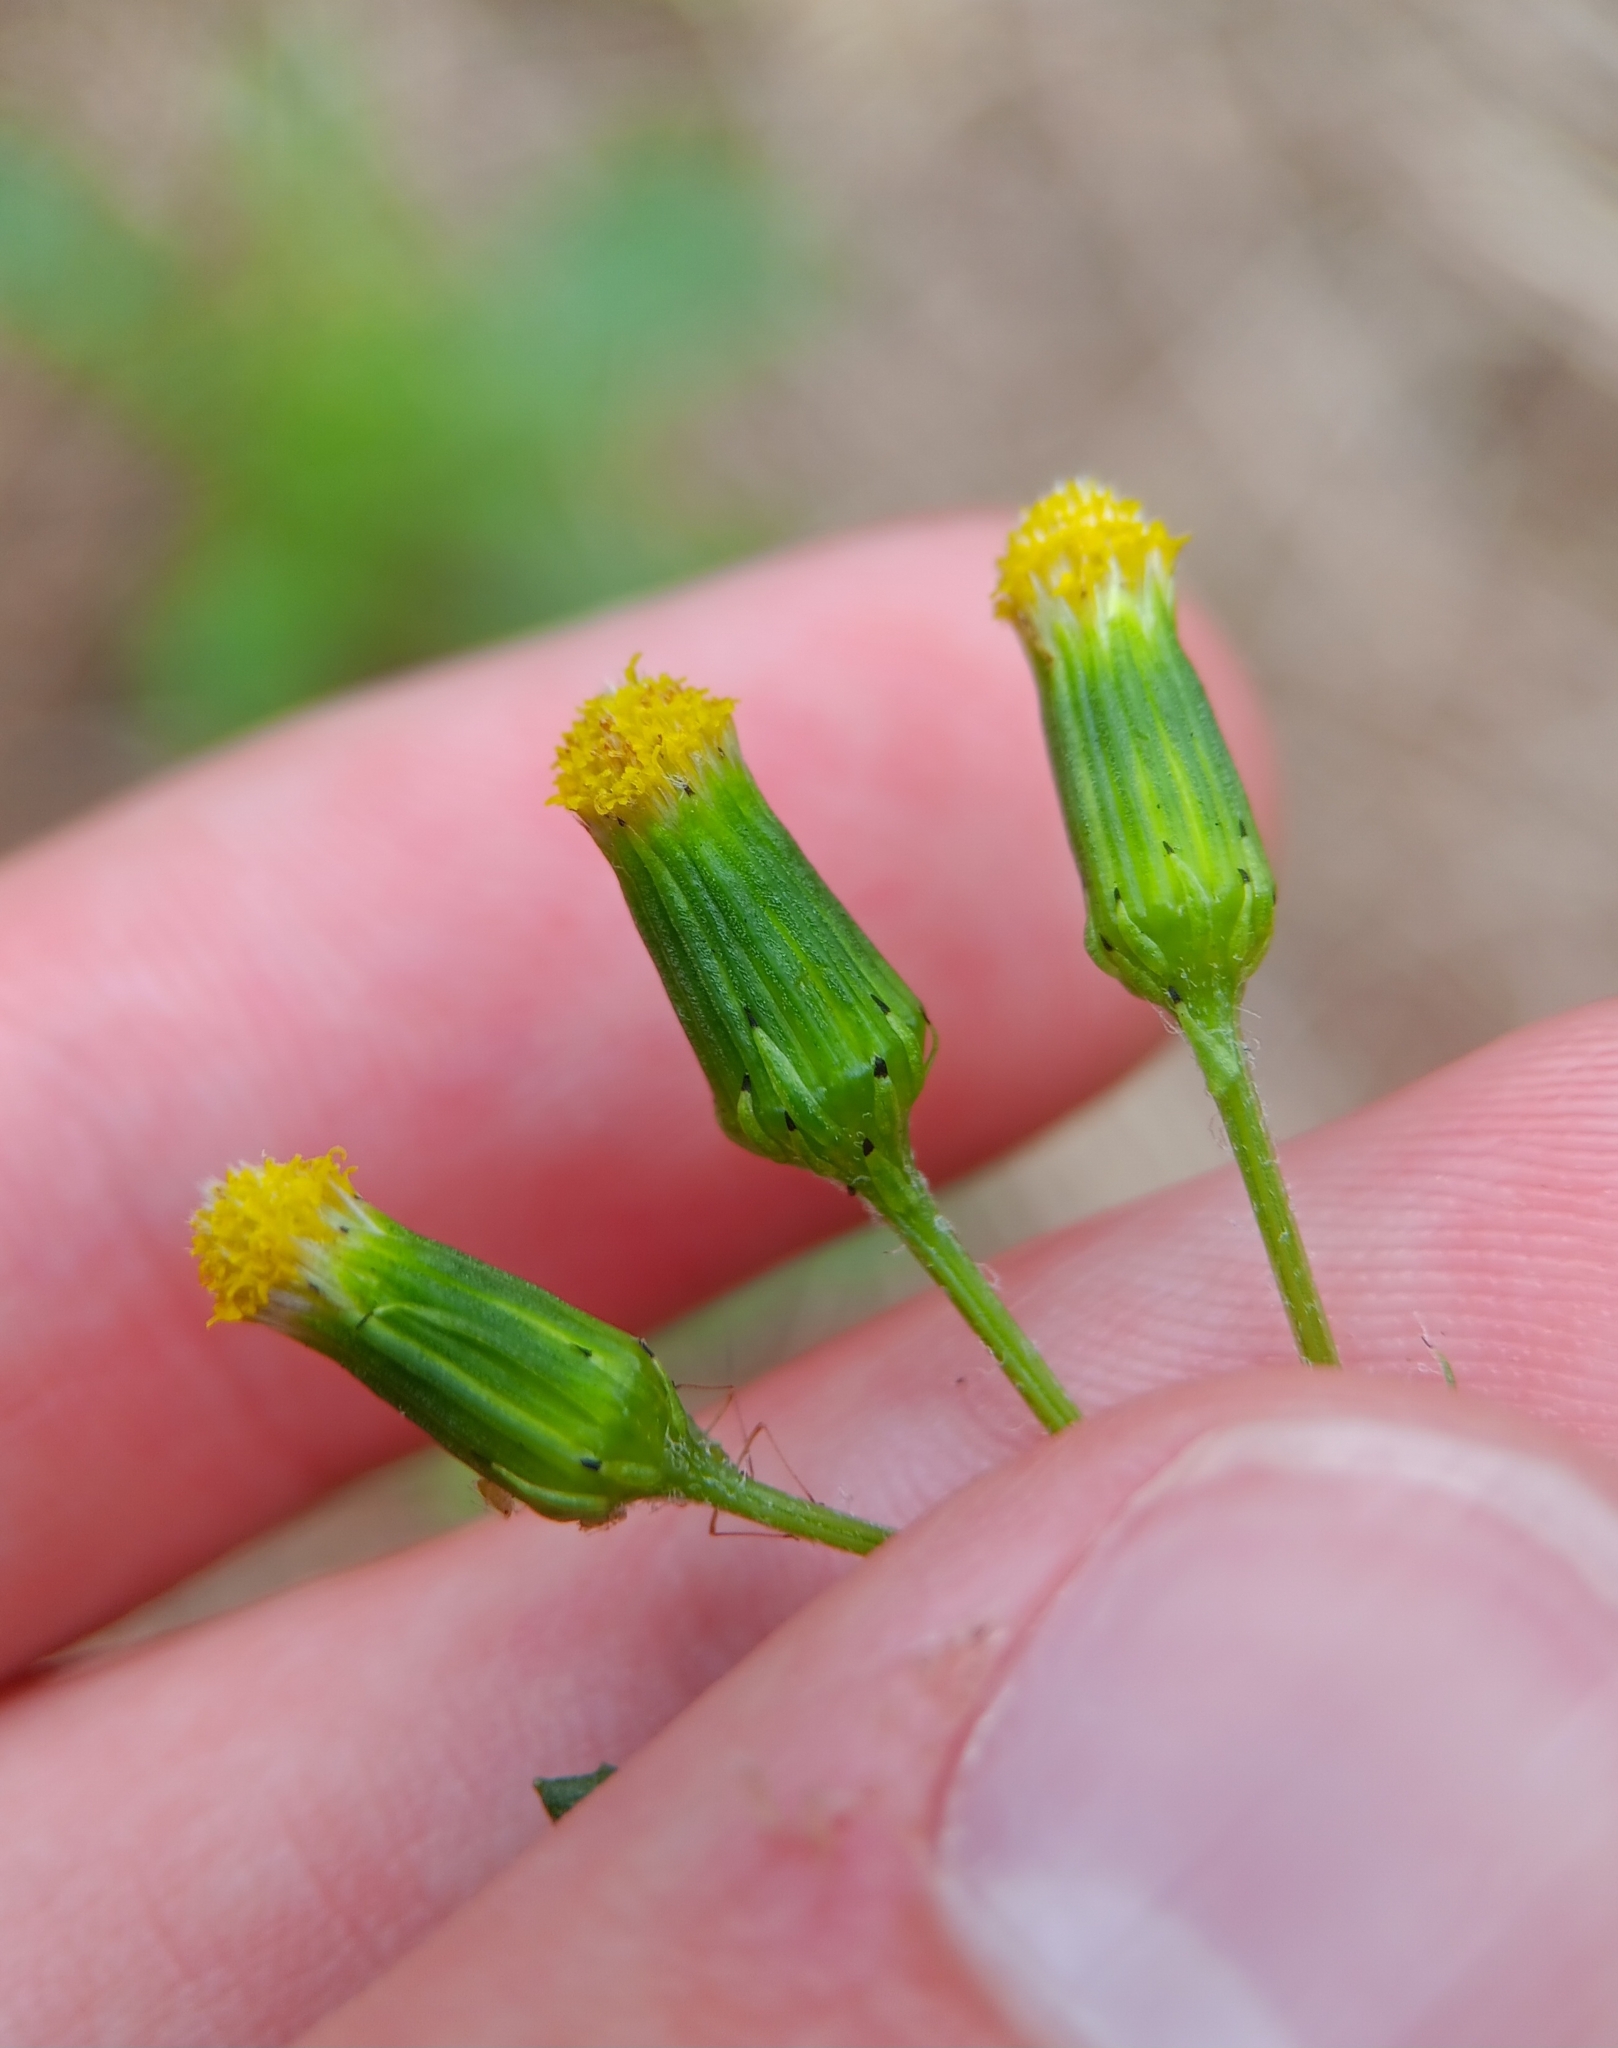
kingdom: Plantae
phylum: Tracheophyta
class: Magnoliopsida
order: Asterales
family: Asteraceae
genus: Senecio
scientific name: Senecio vulgaris
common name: Old-man-in-the-spring
